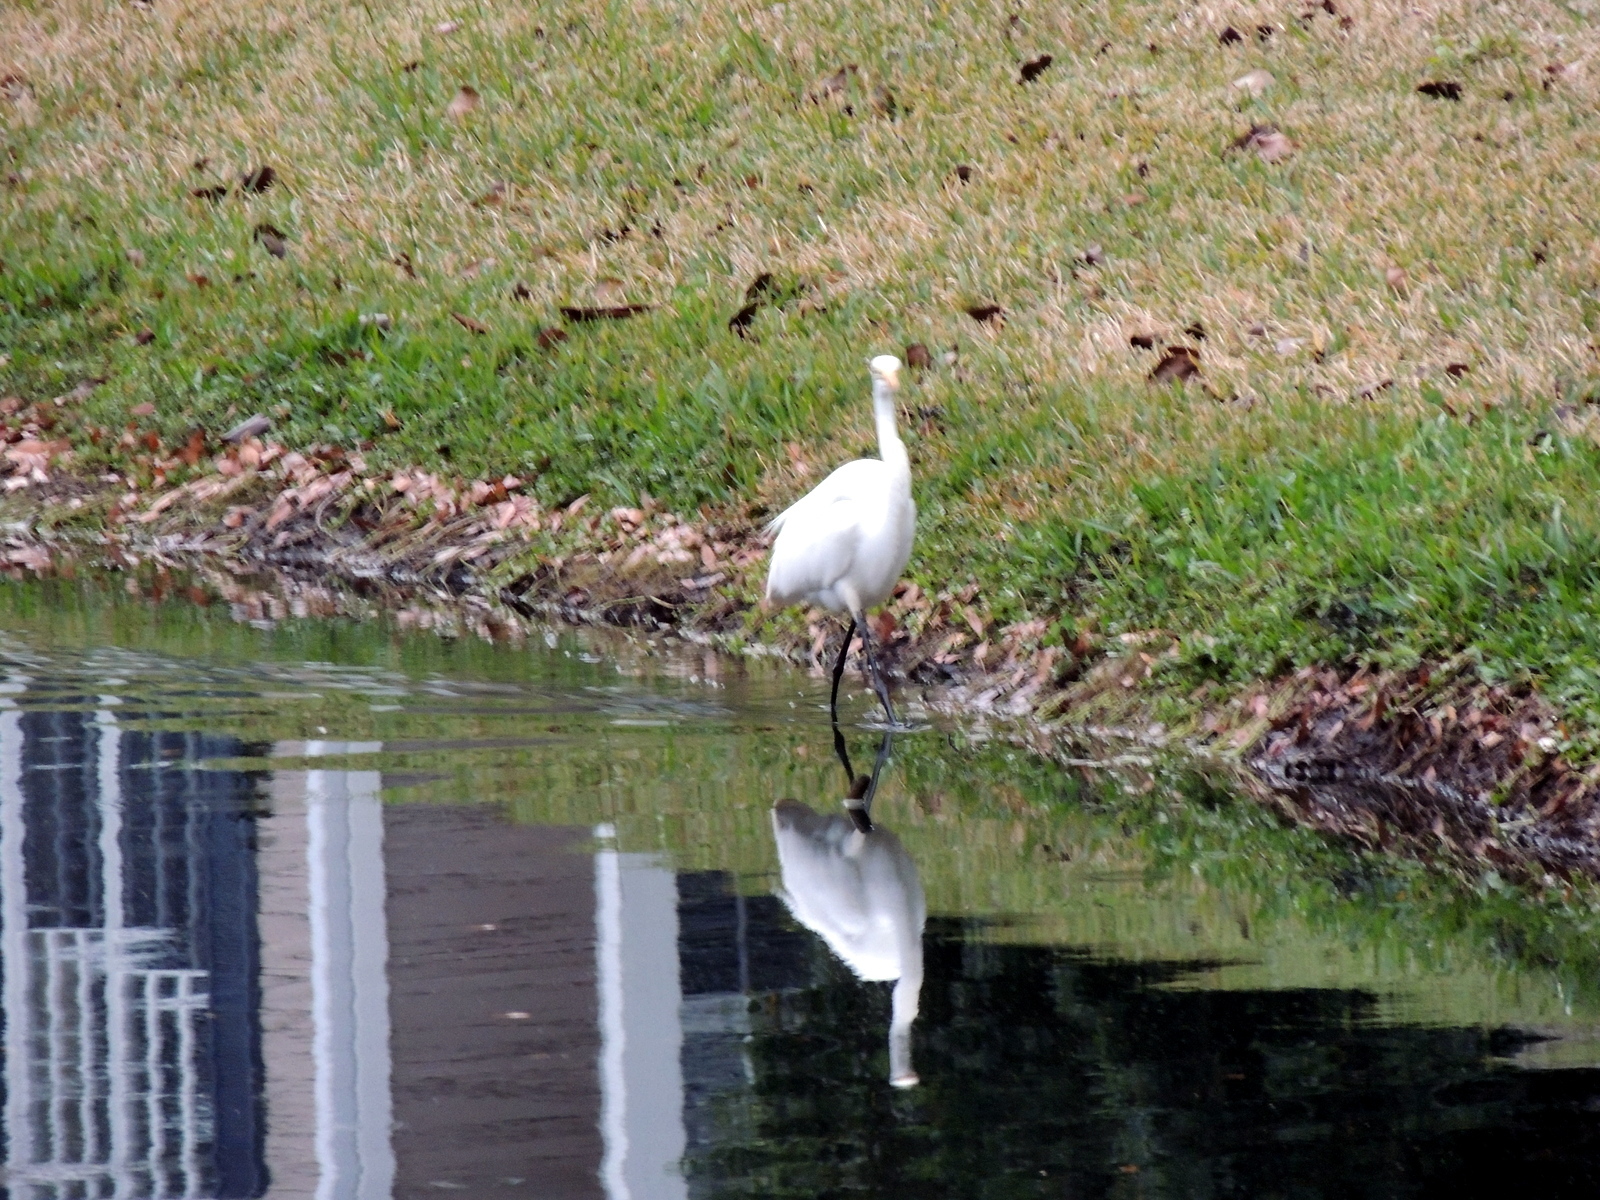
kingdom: Animalia
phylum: Chordata
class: Aves
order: Pelecaniformes
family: Ardeidae
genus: Ardea
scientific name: Ardea alba
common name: Great egret
